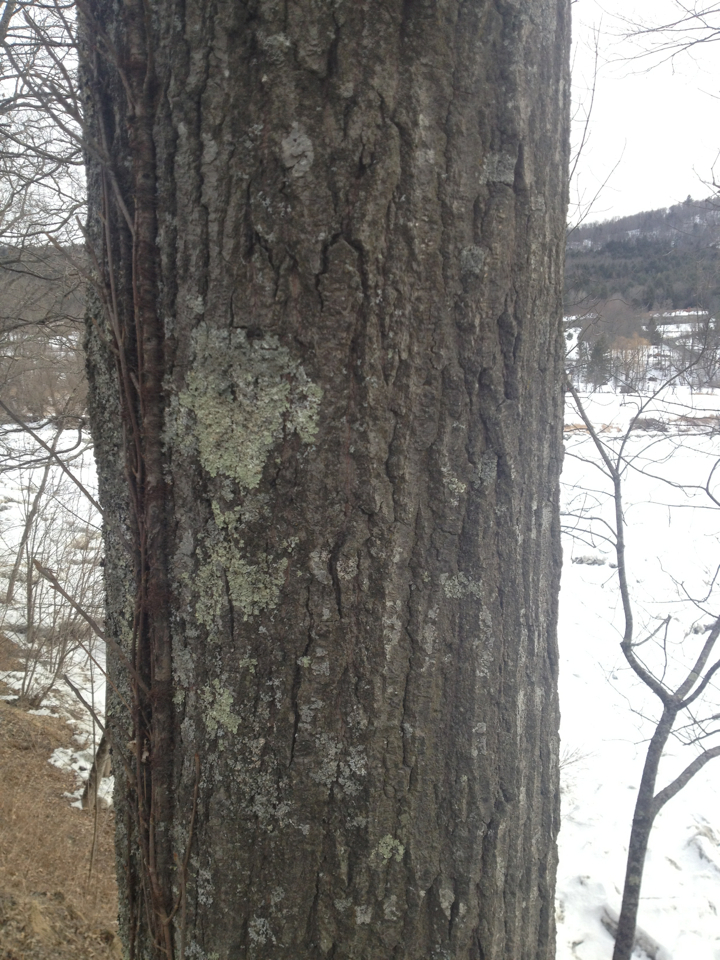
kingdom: Plantae
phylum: Tracheophyta
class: Magnoliopsida
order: Fagales
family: Fagaceae
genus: Quercus
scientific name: Quercus rubra
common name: Red oak
